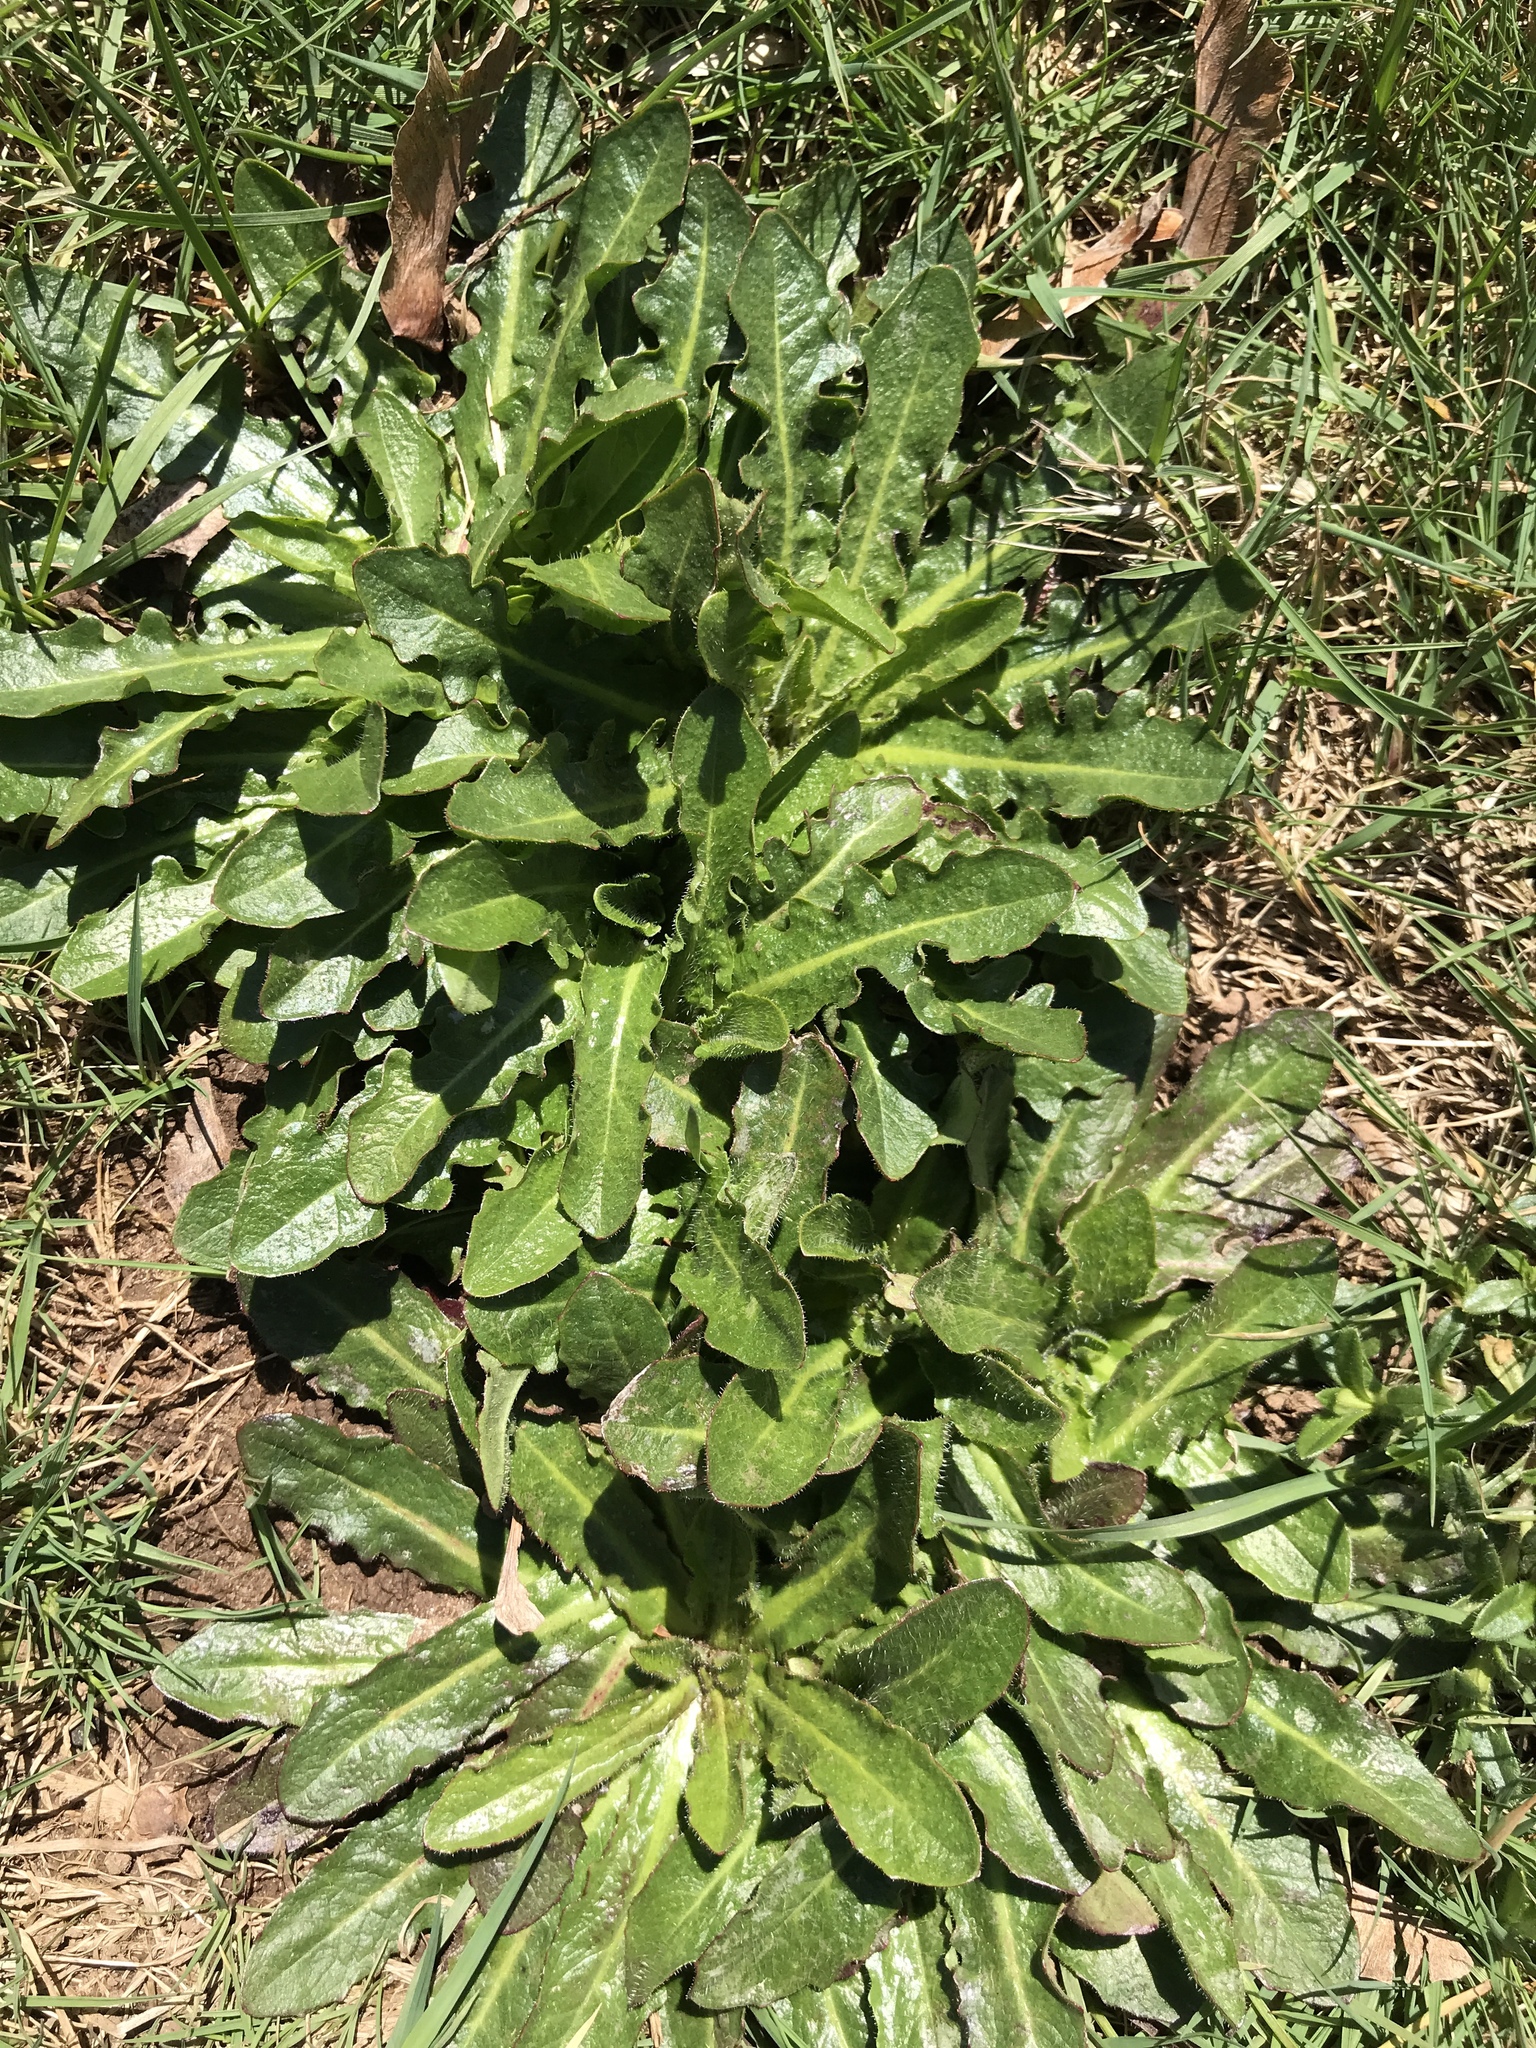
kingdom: Plantae
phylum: Tracheophyta
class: Magnoliopsida
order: Asterales
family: Asteraceae
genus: Hypochaeris
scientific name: Hypochaeris radicata
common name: Flatweed
